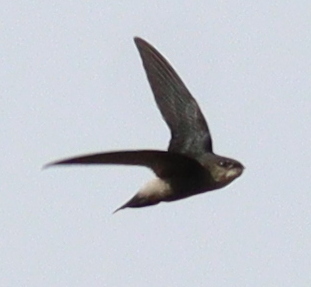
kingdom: Animalia
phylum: Chordata
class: Aves
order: Apodiformes
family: Apodidae
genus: Chaetura
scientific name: Chaetura fumosa
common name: Costa rican swift
